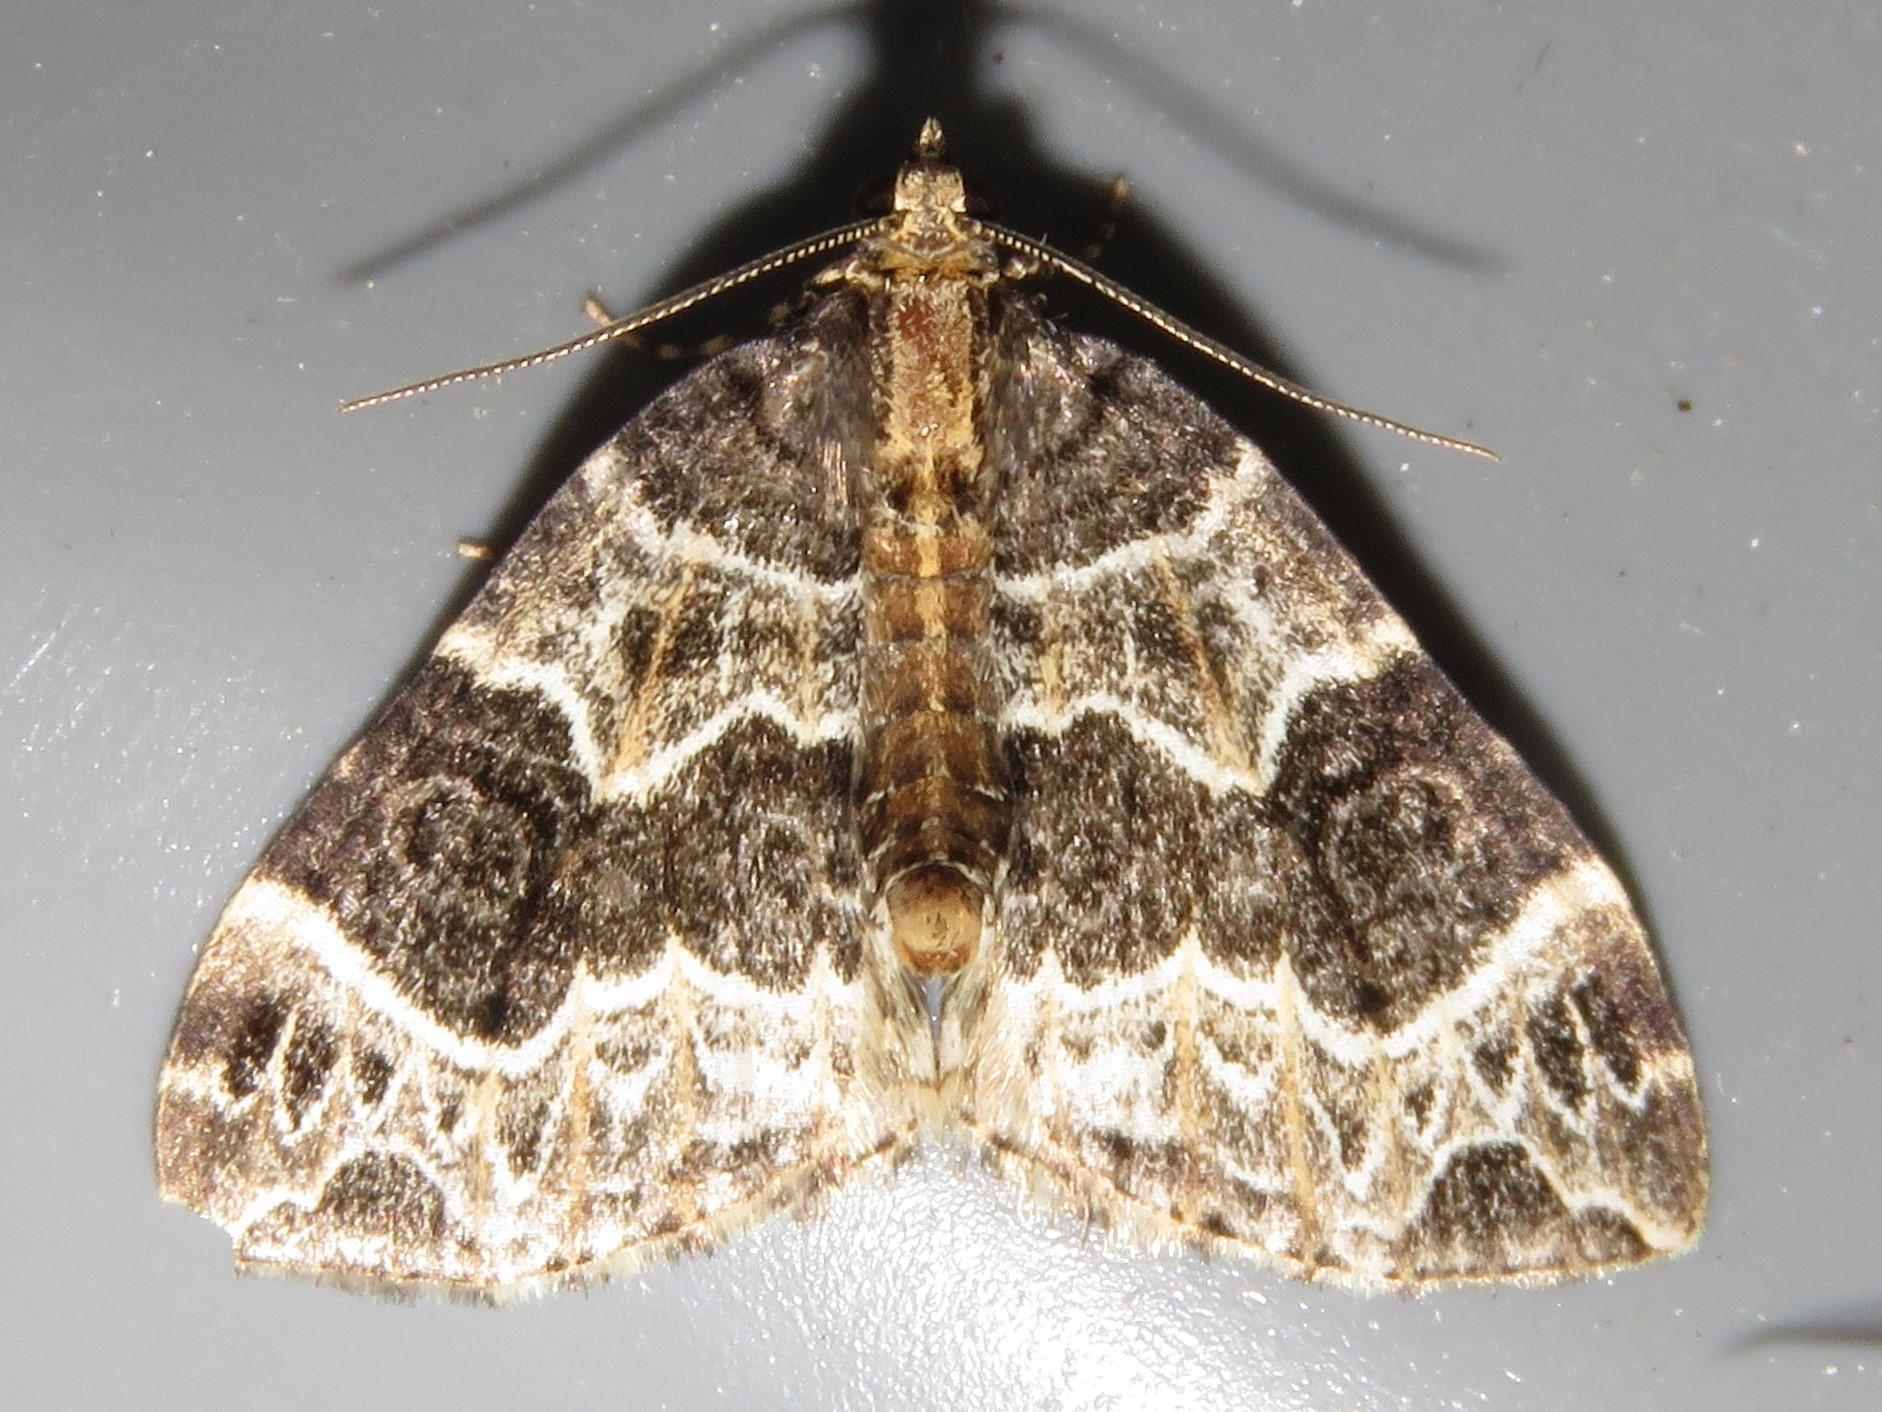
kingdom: Animalia
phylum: Arthropoda
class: Insecta
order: Lepidoptera
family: Geometridae
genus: Ecliptopera
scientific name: Ecliptopera silaceata
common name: Small phoenix
